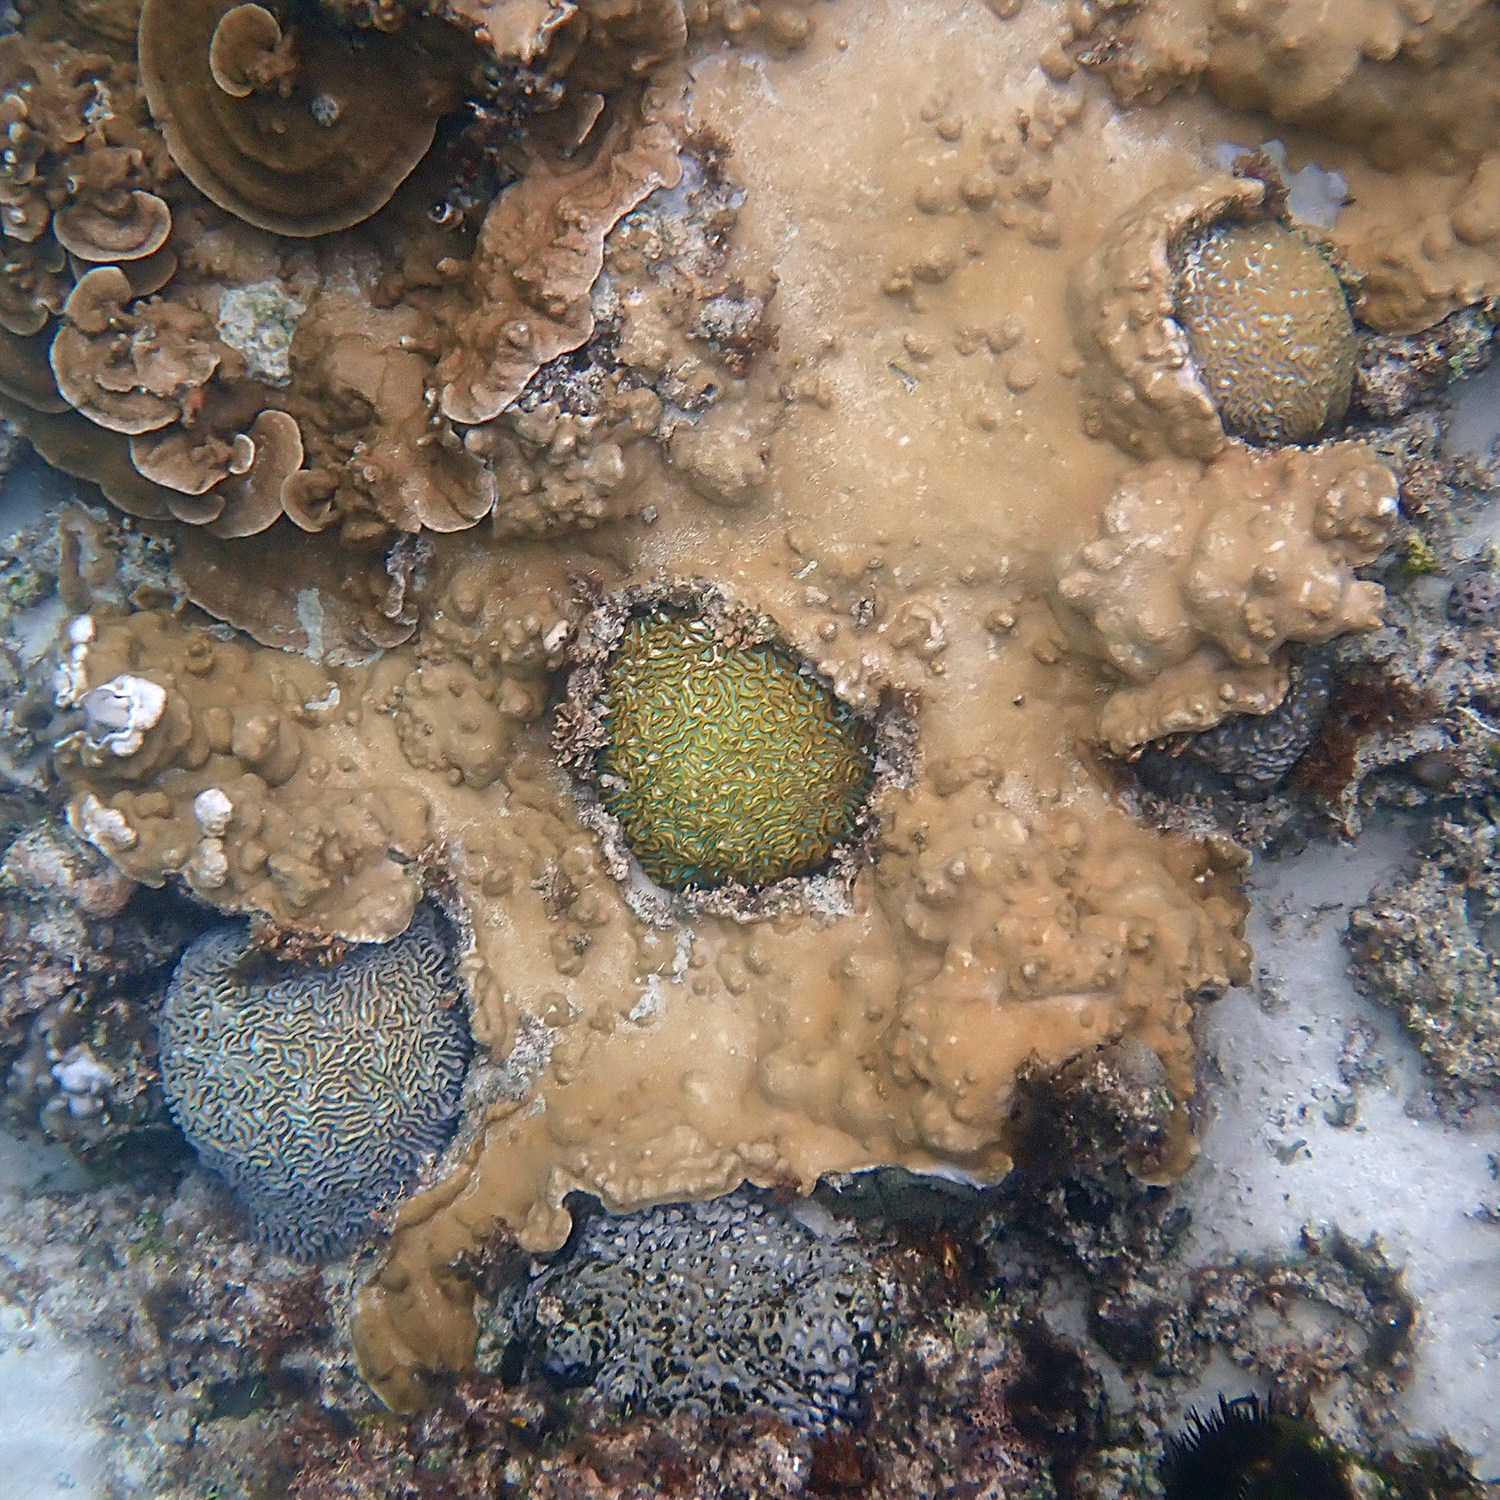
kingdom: Animalia
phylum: Cnidaria
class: Anthozoa
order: Scleractinia
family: Merulinidae
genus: Paragoniastrea
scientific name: Paragoniastrea australensis
